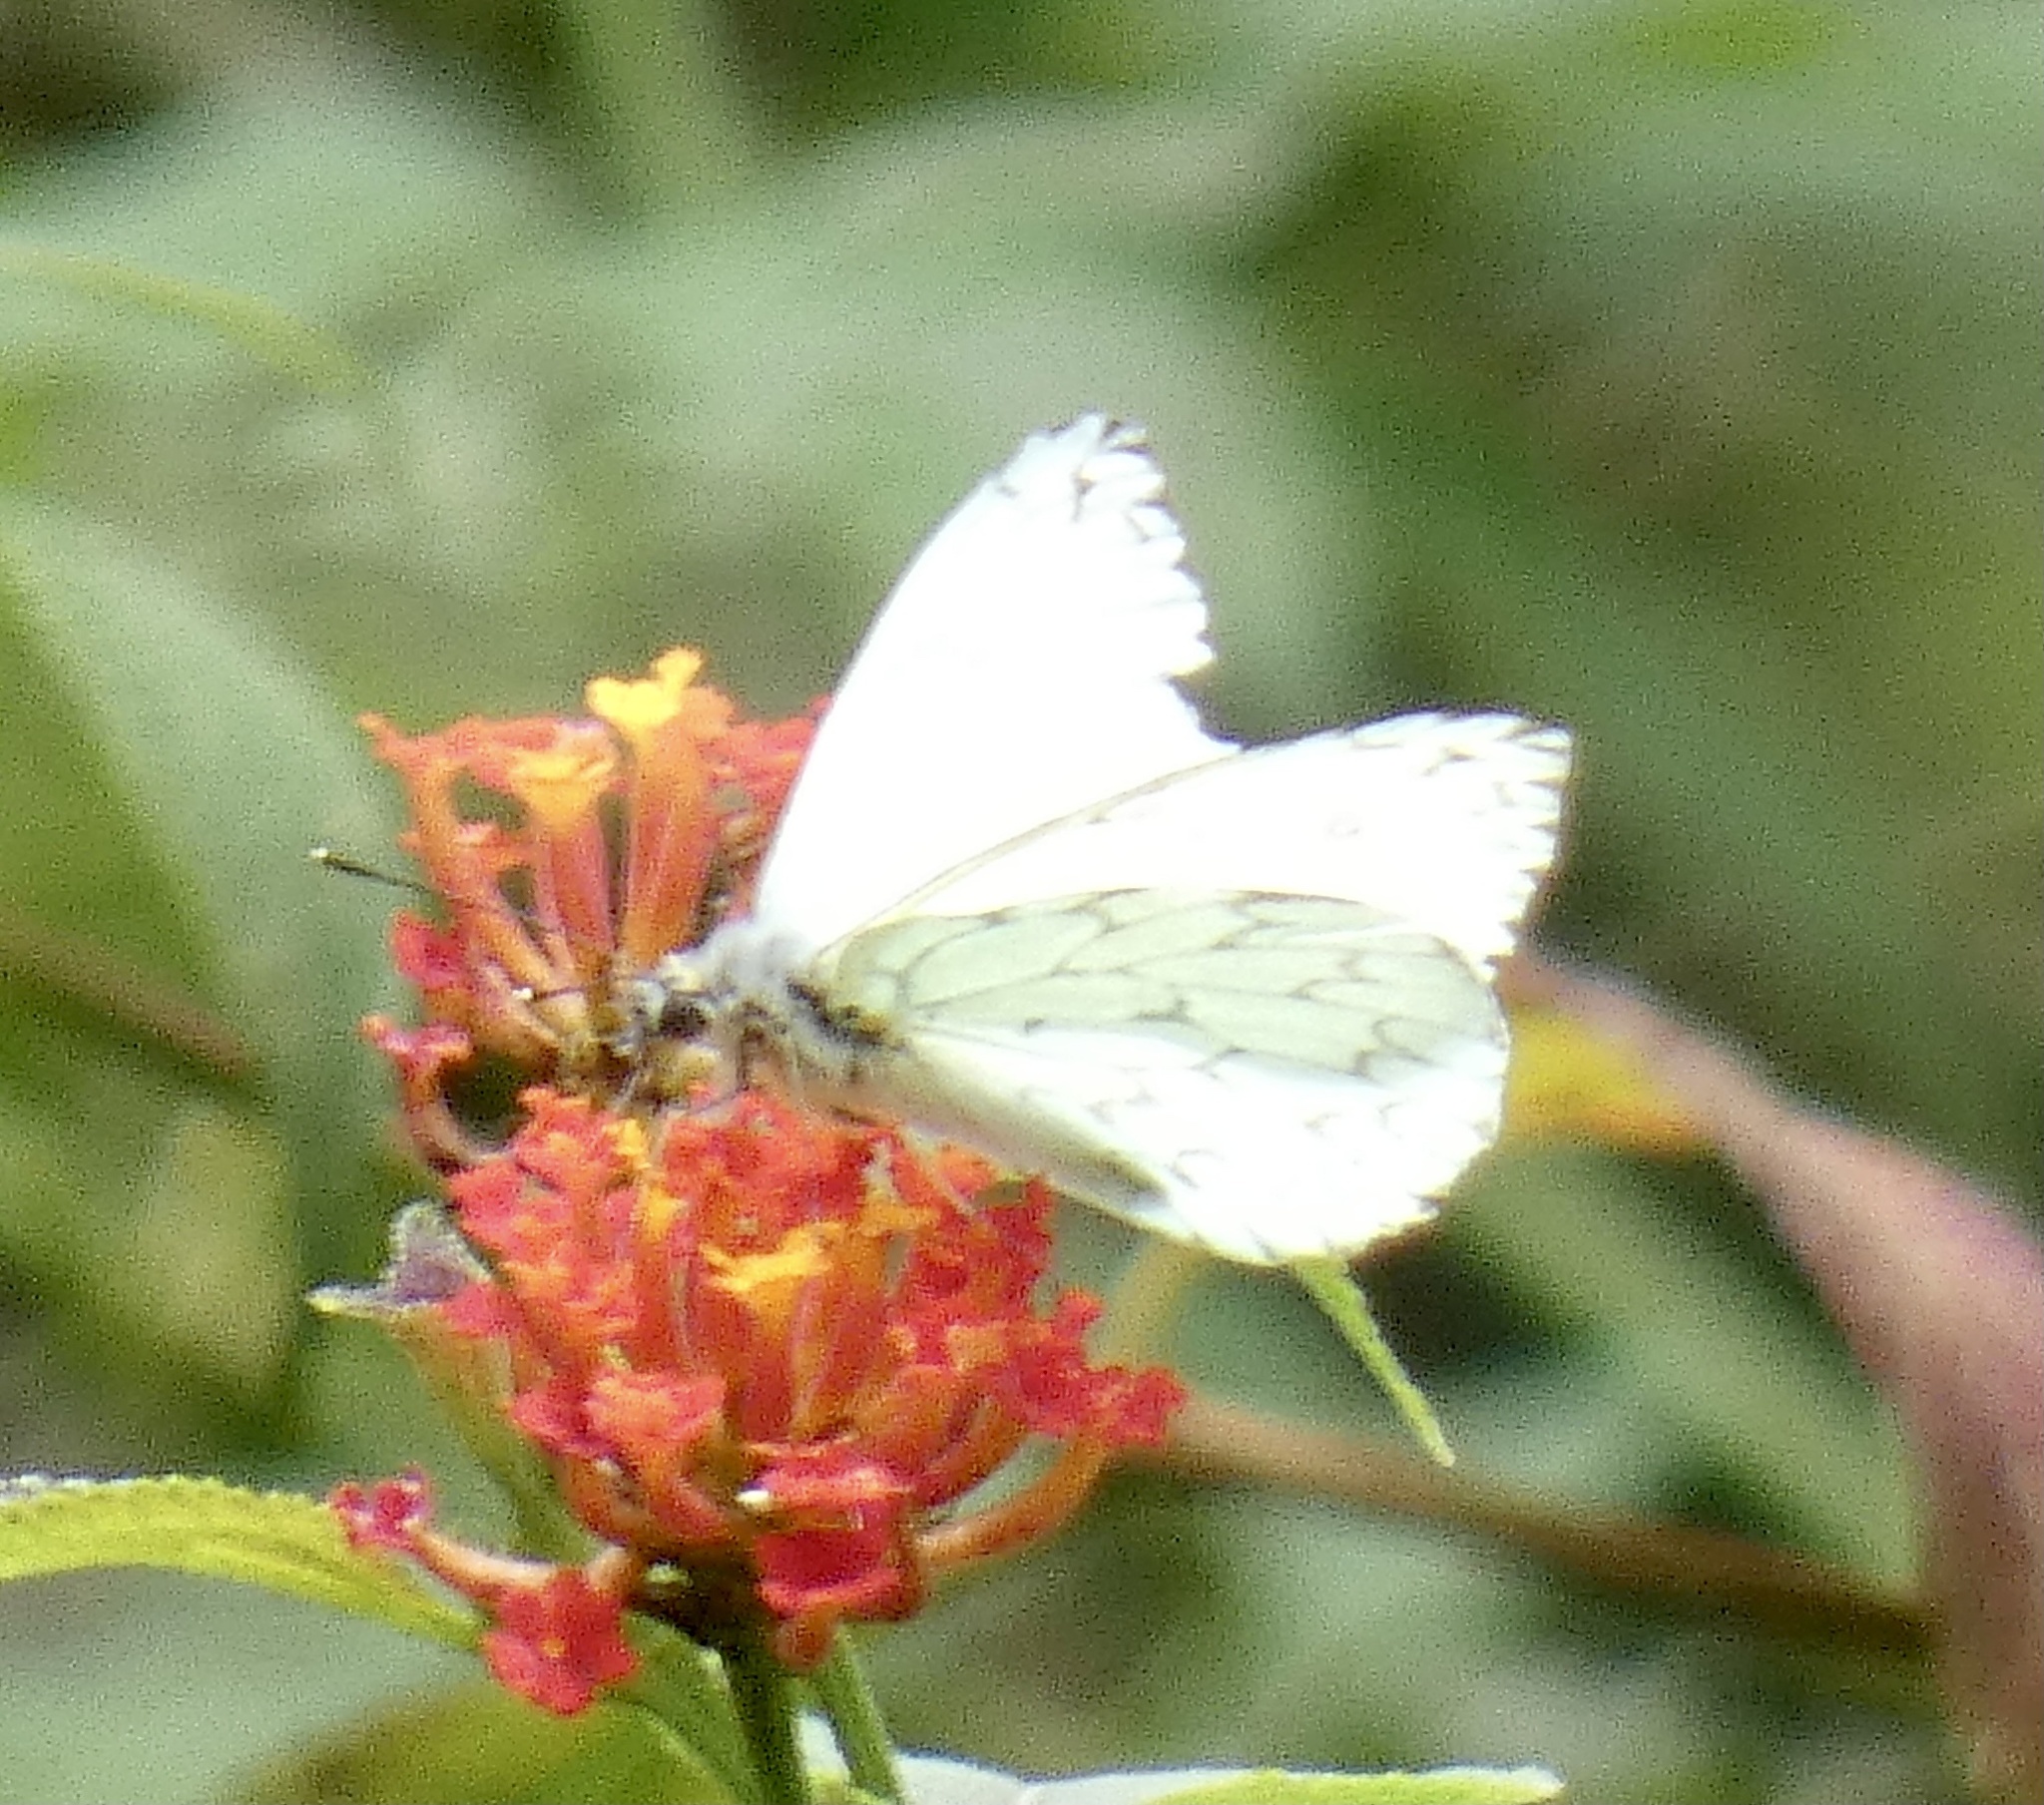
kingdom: Animalia
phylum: Arthropoda
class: Insecta
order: Lepidoptera
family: Pieridae
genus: Hesperocharis
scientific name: Hesperocharis paranensis
